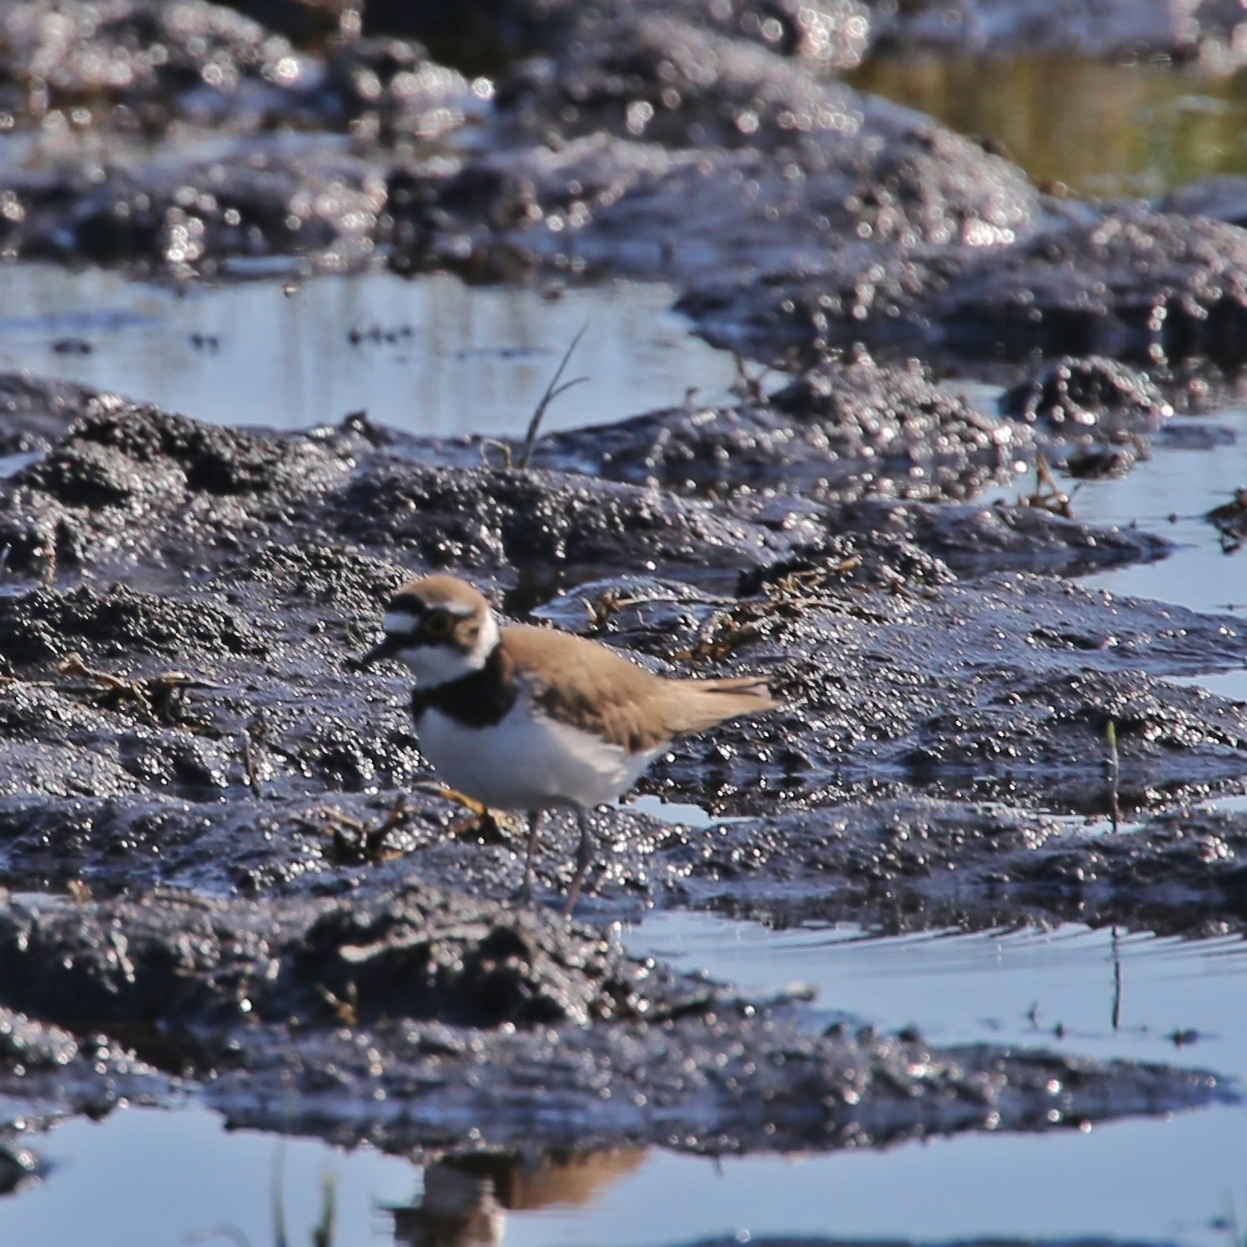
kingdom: Animalia
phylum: Chordata
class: Aves
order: Charadriiformes
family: Charadriidae
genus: Charadrius
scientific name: Charadrius dubius
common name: Little ringed plover
